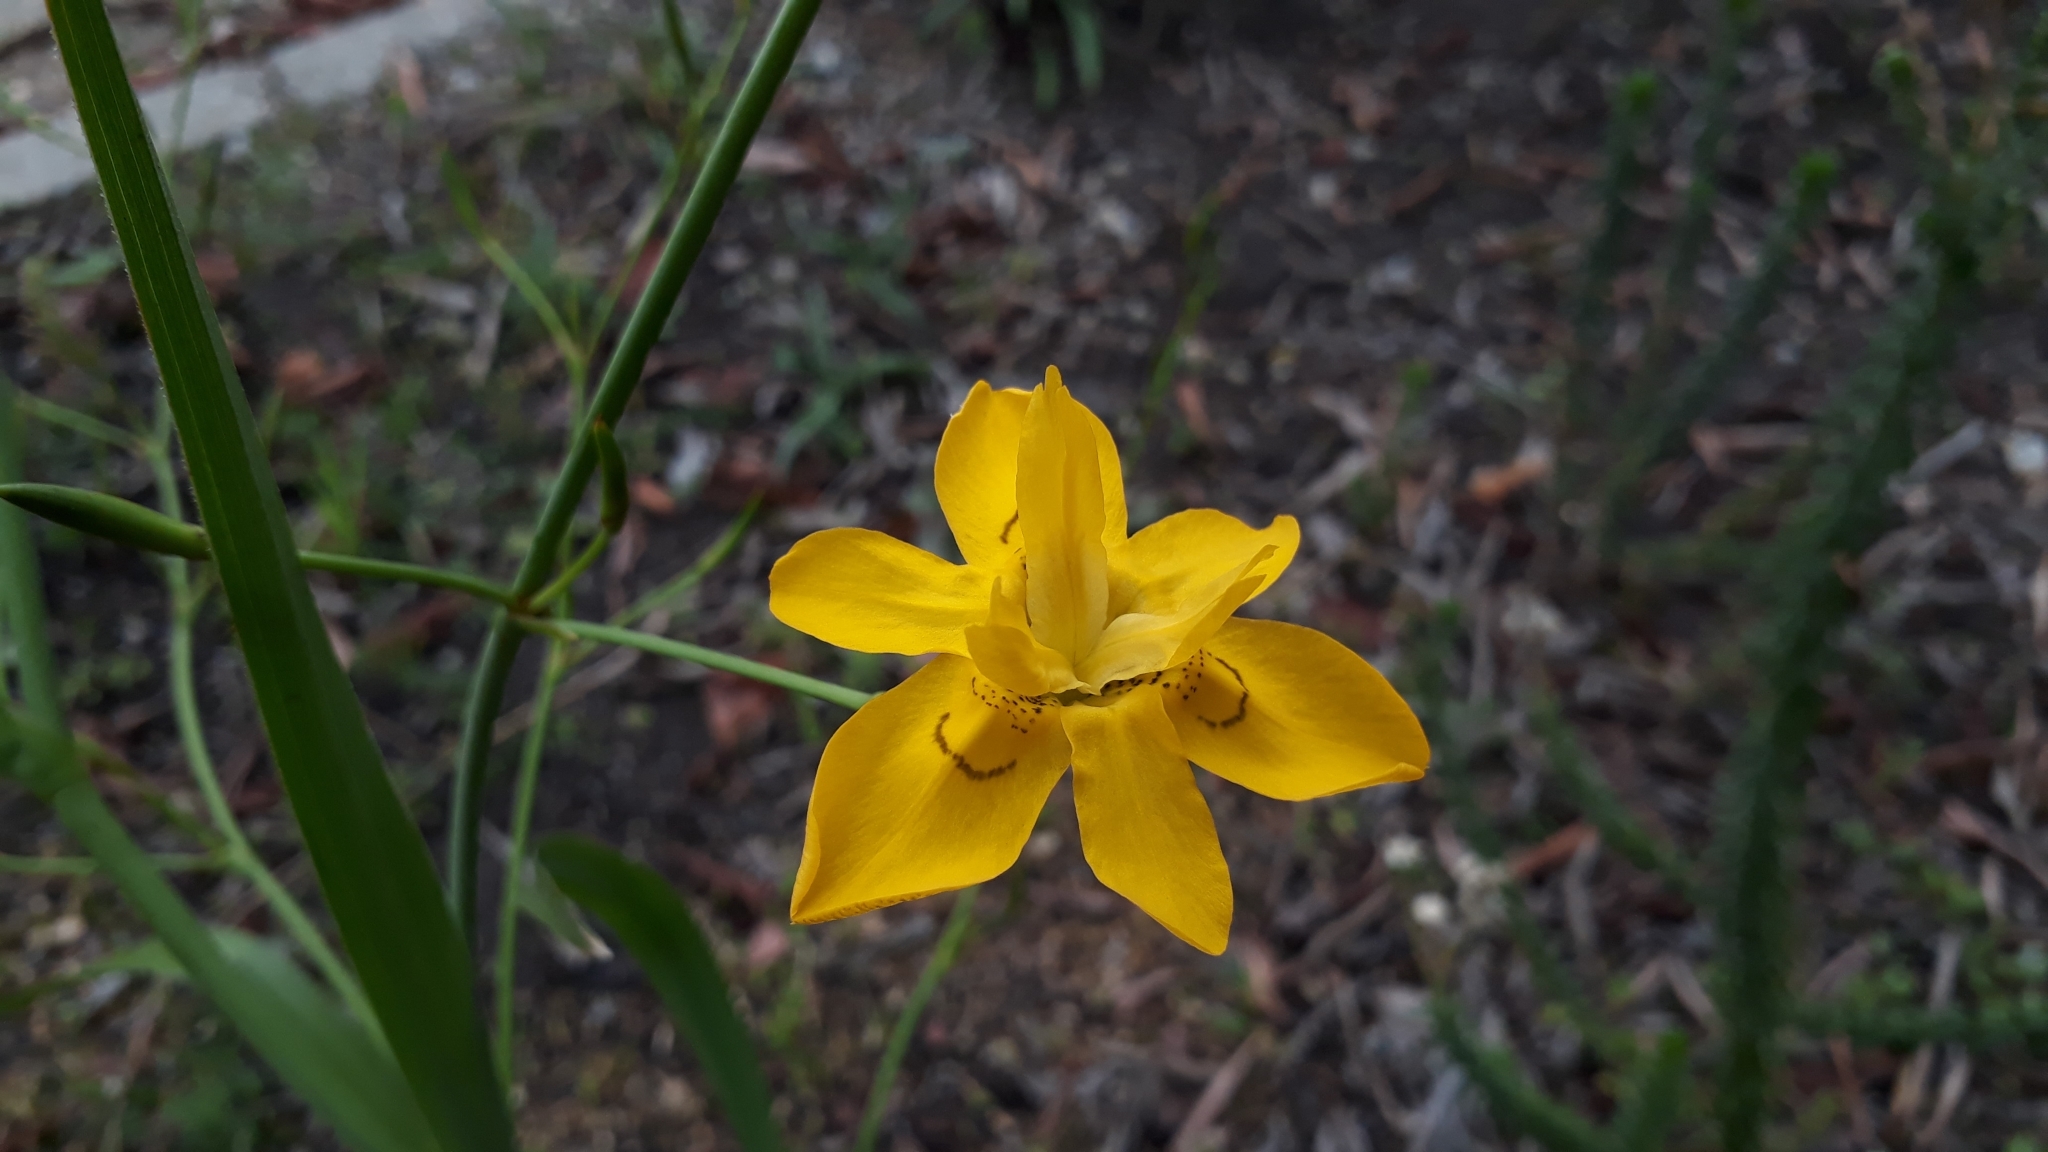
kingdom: Plantae
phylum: Tracheophyta
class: Liliopsida
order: Asparagales
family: Iridaceae
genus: Moraea
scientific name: Moraea ramosissima
